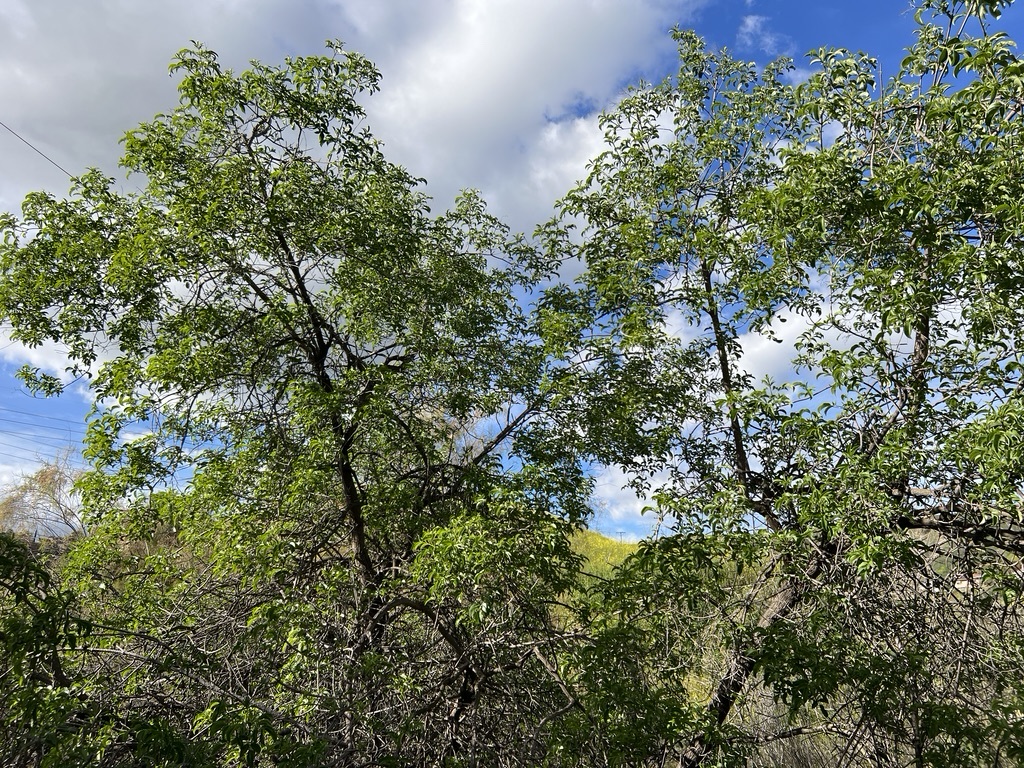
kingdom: Plantae
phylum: Tracheophyta
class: Magnoliopsida
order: Dipsacales
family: Viburnaceae
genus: Sambucus
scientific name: Sambucus cerulea
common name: Blue elder
